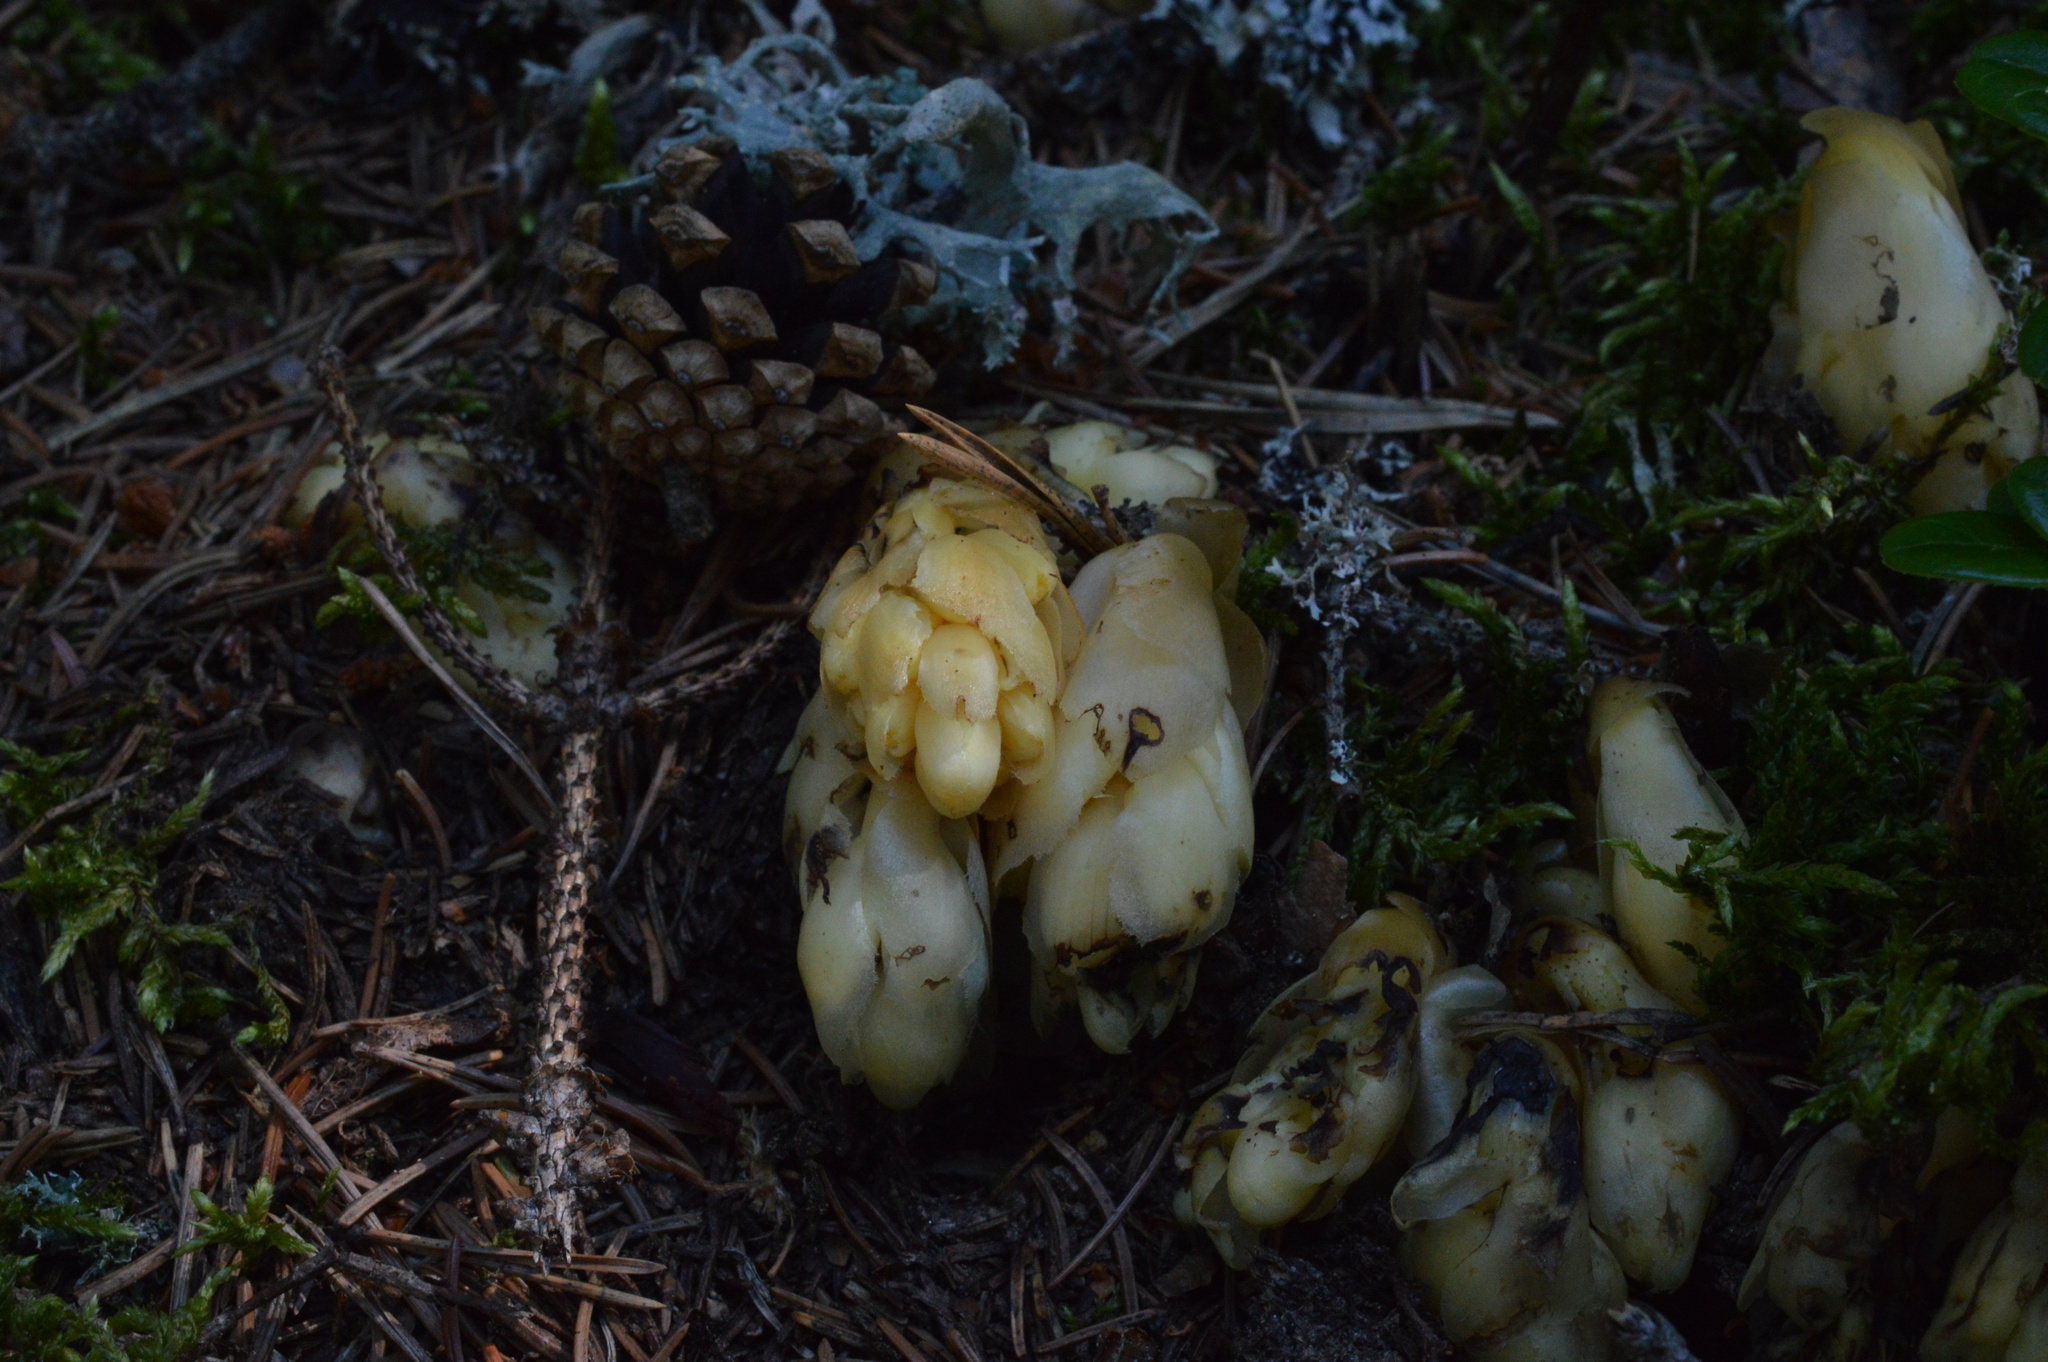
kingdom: Plantae
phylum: Tracheophyta
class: Magnoliopsida
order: Ericales
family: Ericaceae
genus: Hypopitys
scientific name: Hypopitys monotropa
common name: Yellow bird's-nest
